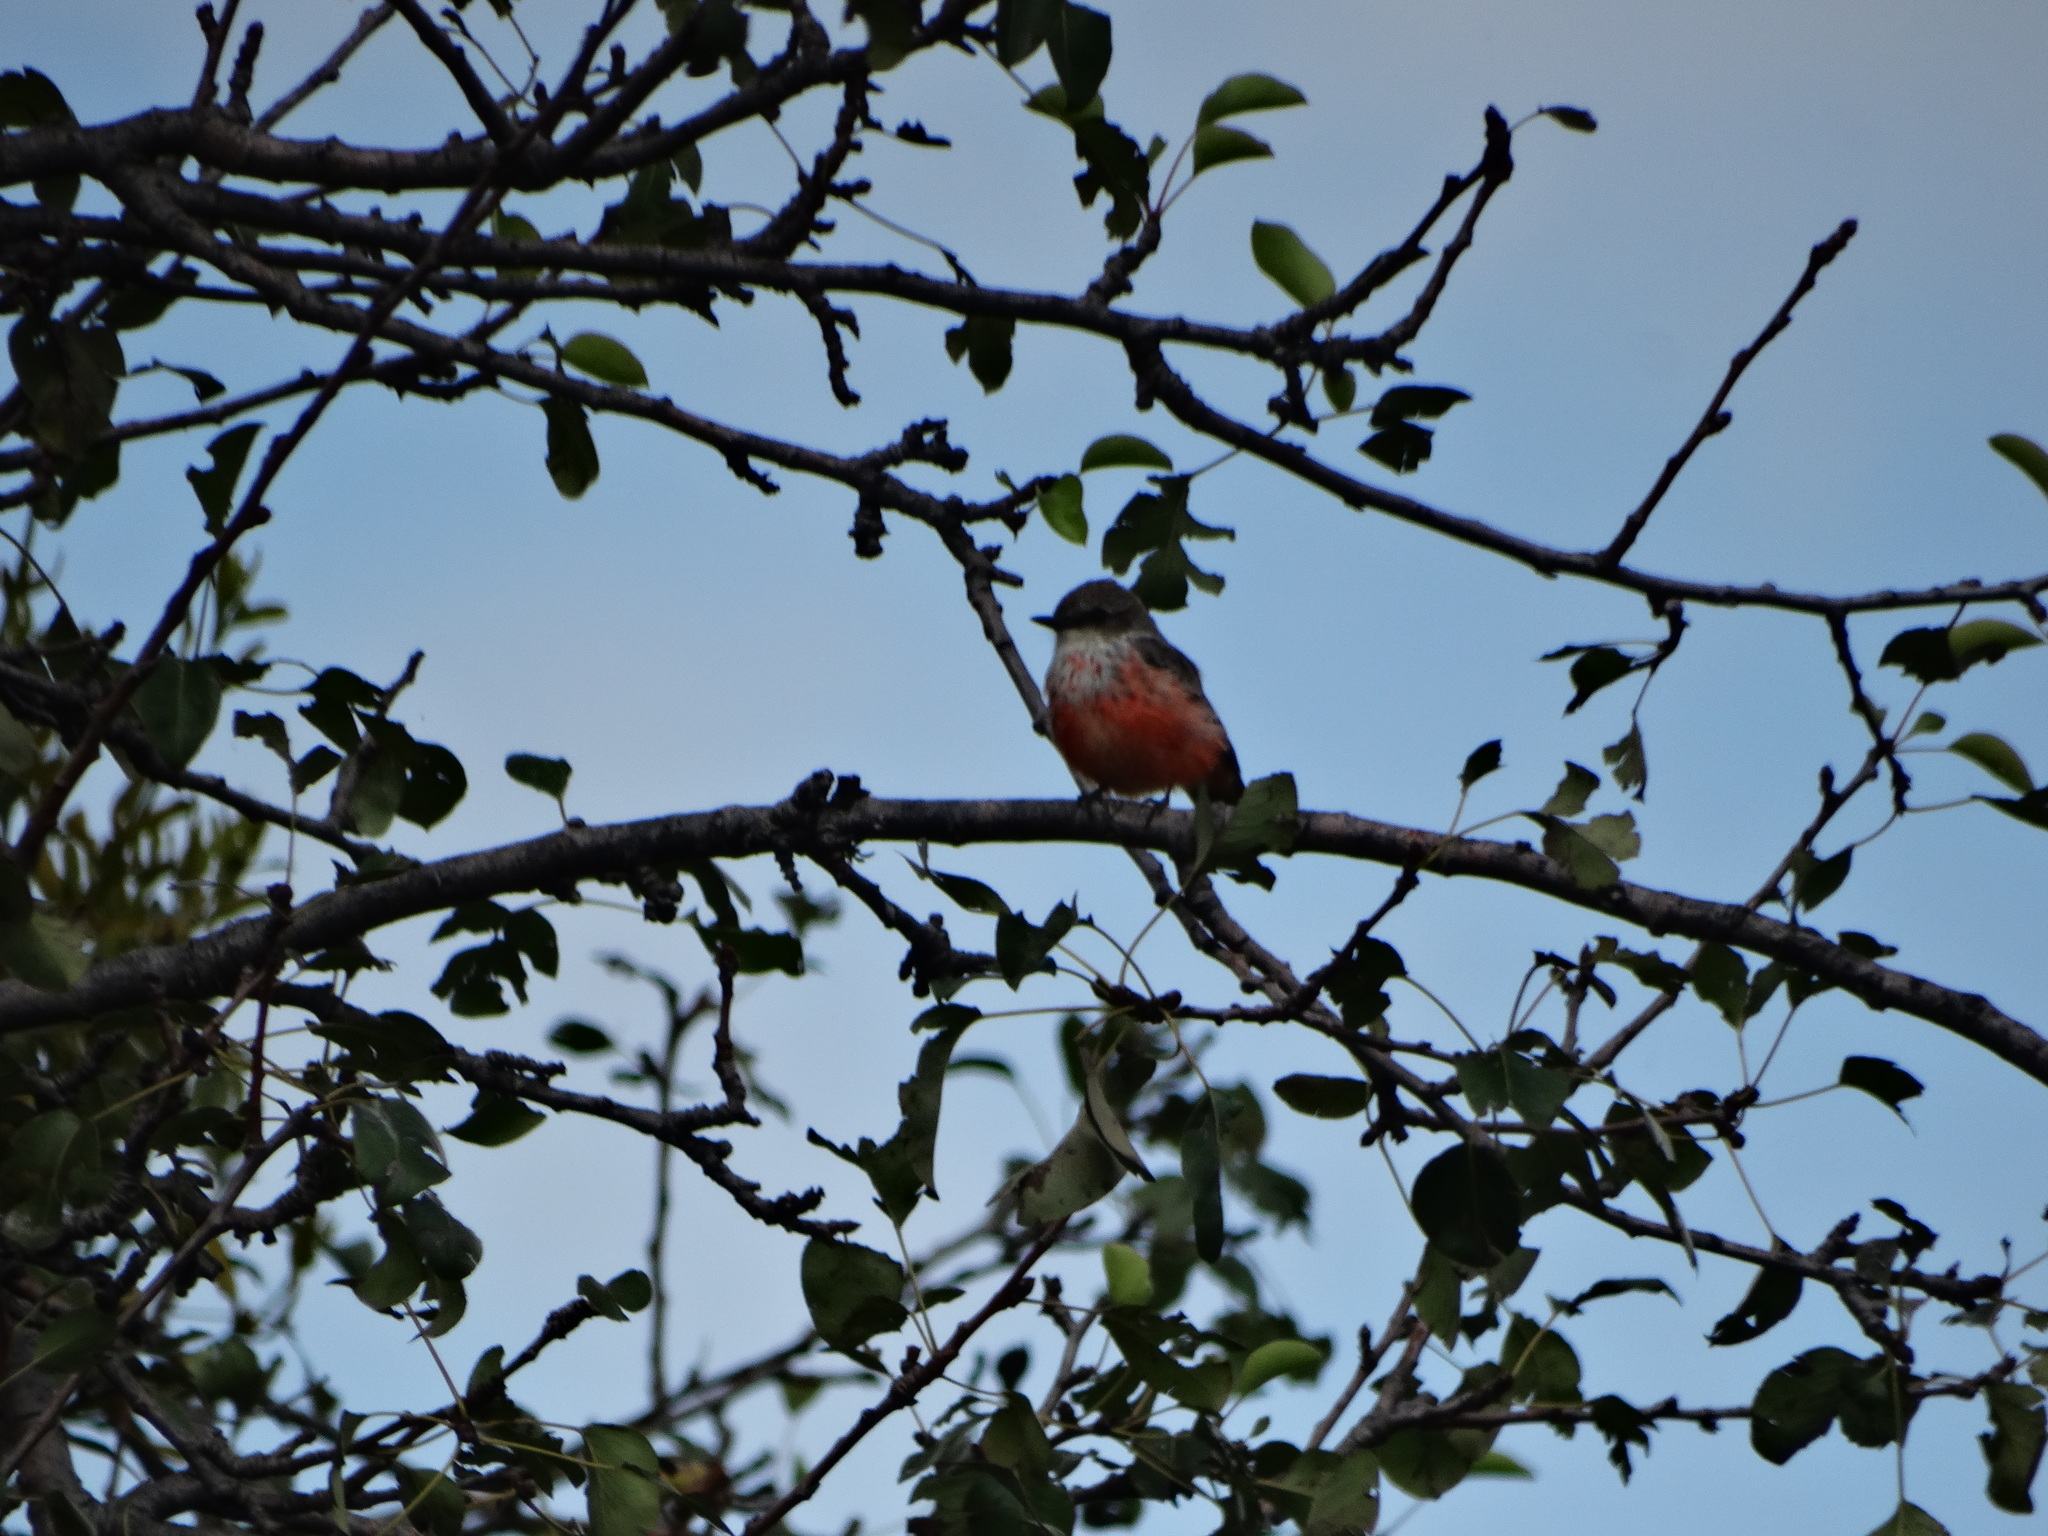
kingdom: Animalia
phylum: Chordata
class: Aves
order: Passeriformes
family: Tyrannidae
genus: Pyrocephalus
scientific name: Pyrocephalus rubinus
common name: Vermilion flycatcher
